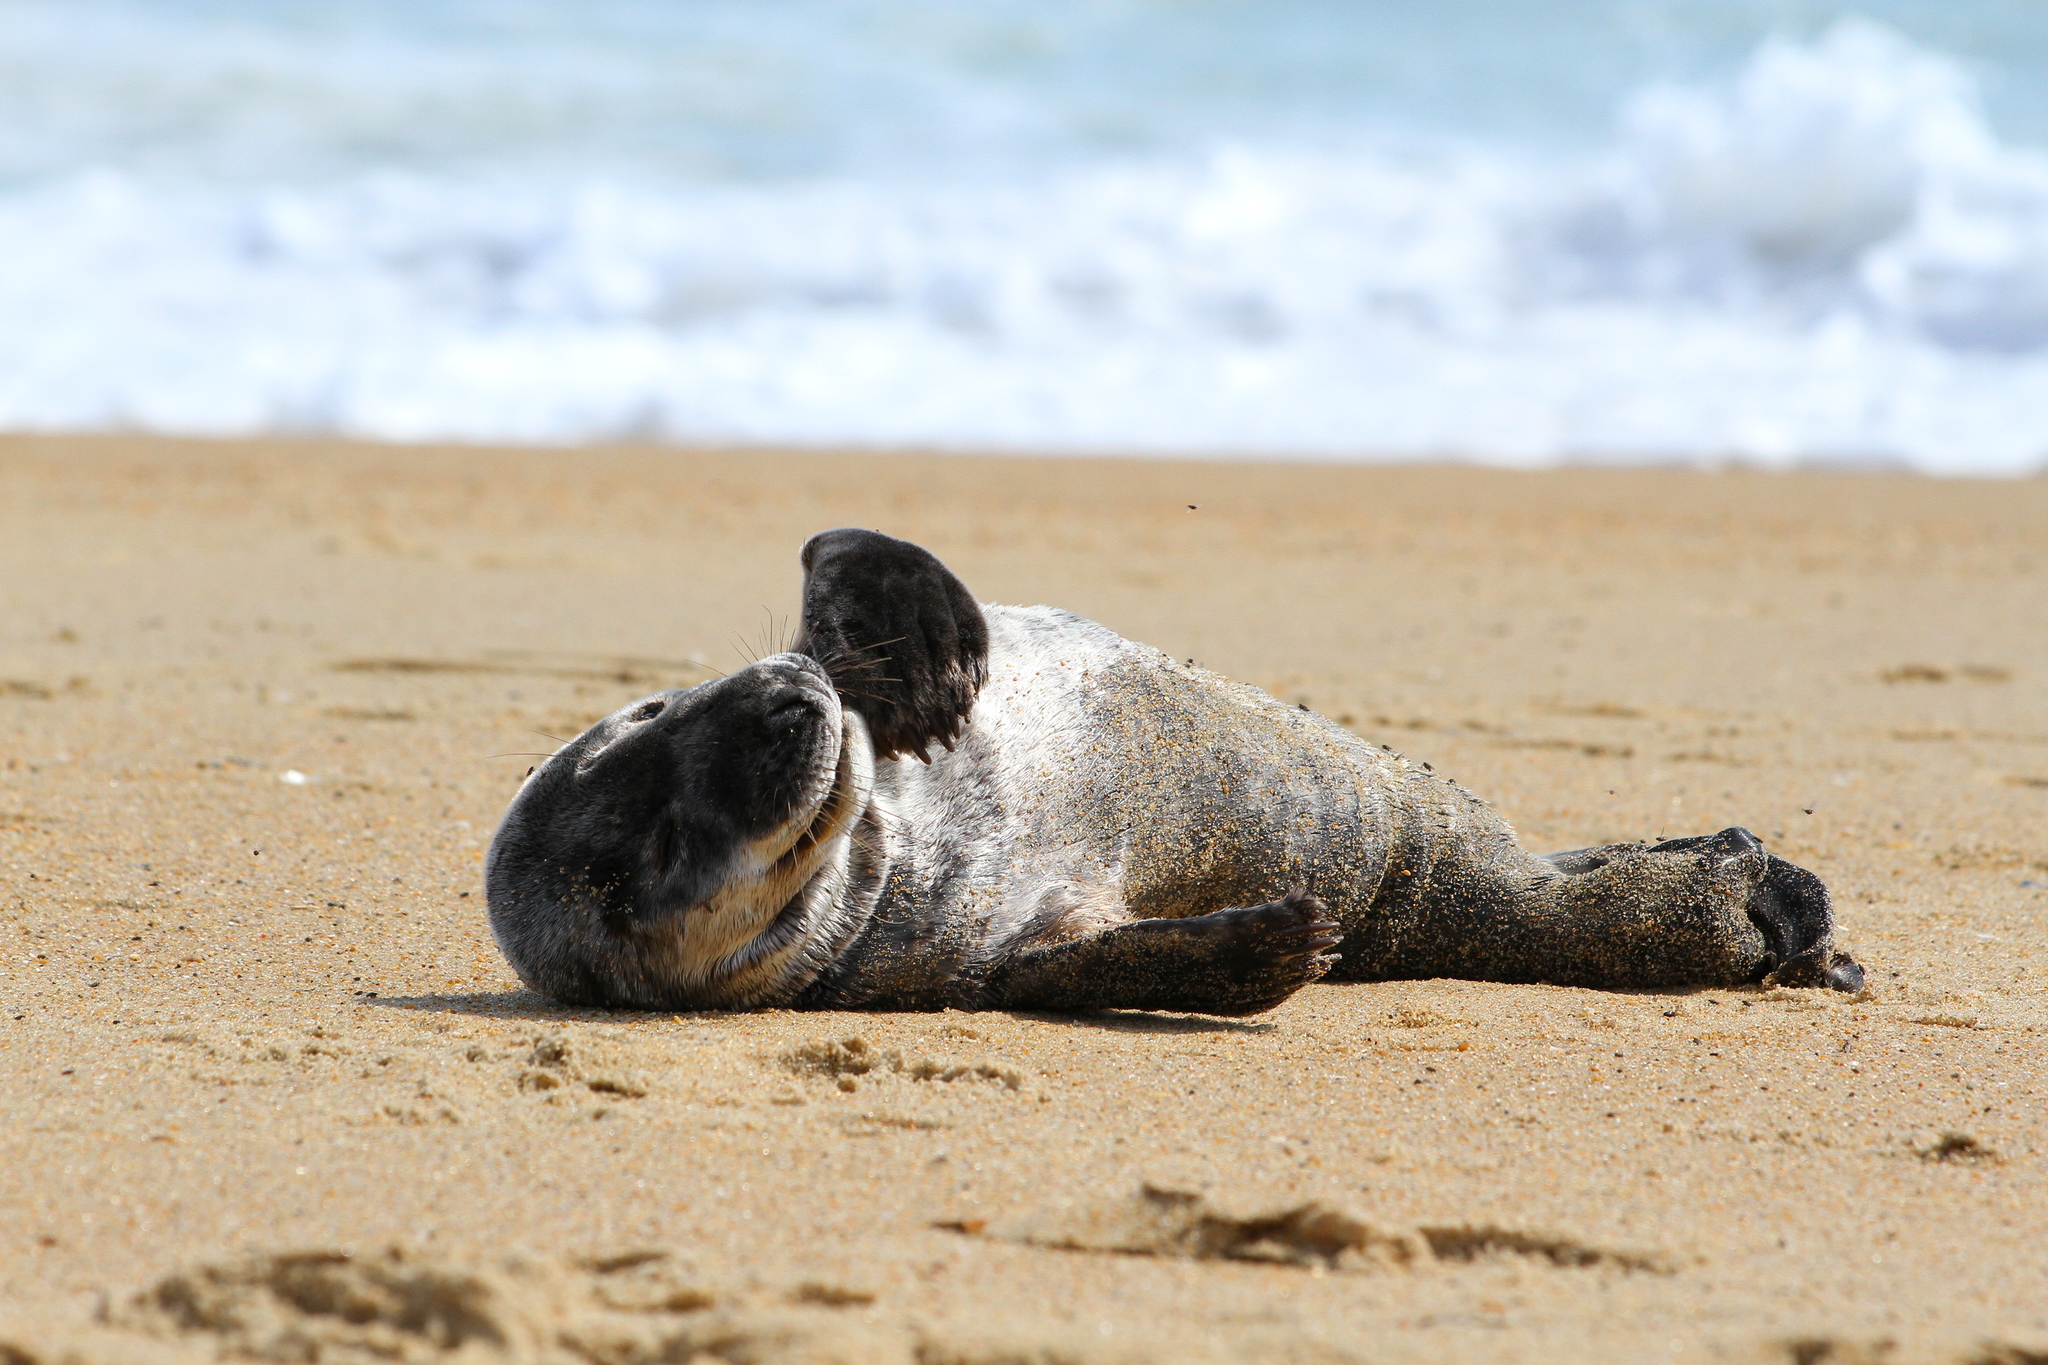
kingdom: Animalia
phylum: Chordata
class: Mammalia
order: Carnivora
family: Phocidae
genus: Halichoerus
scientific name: Halichoerus grypus
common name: Grey seal
